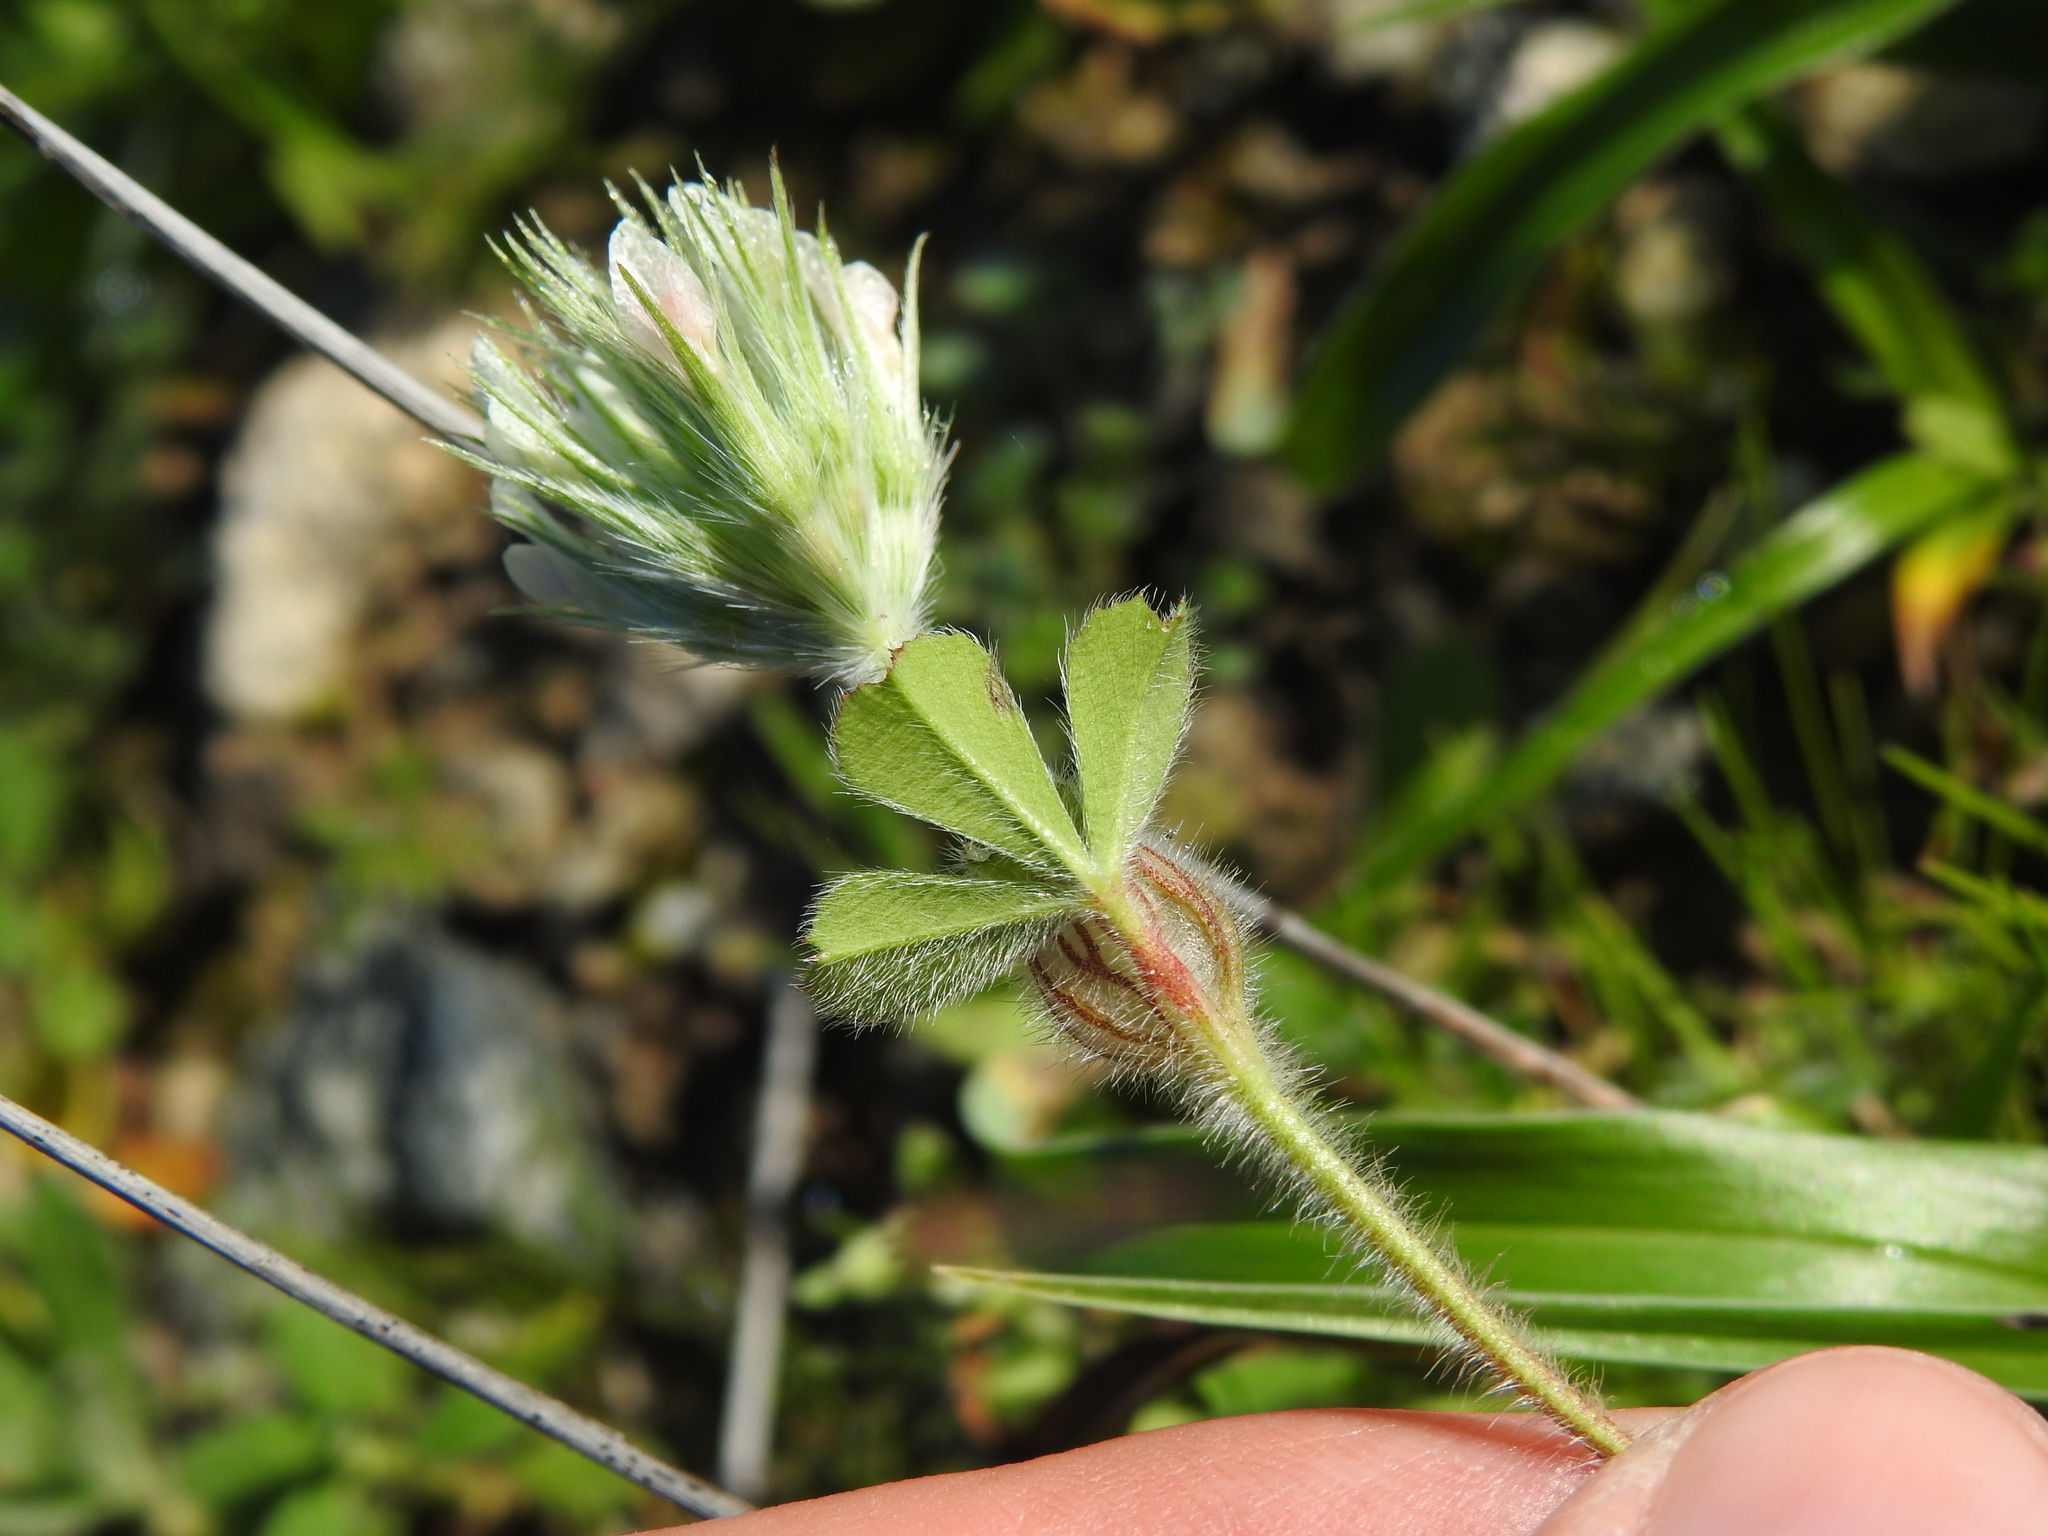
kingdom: Plantae
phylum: Tracheophyta
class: Magnoliopsida
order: Fabales
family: Fabaceae
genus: Trifolium
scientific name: Trifolium stellatum
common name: Starry clover
